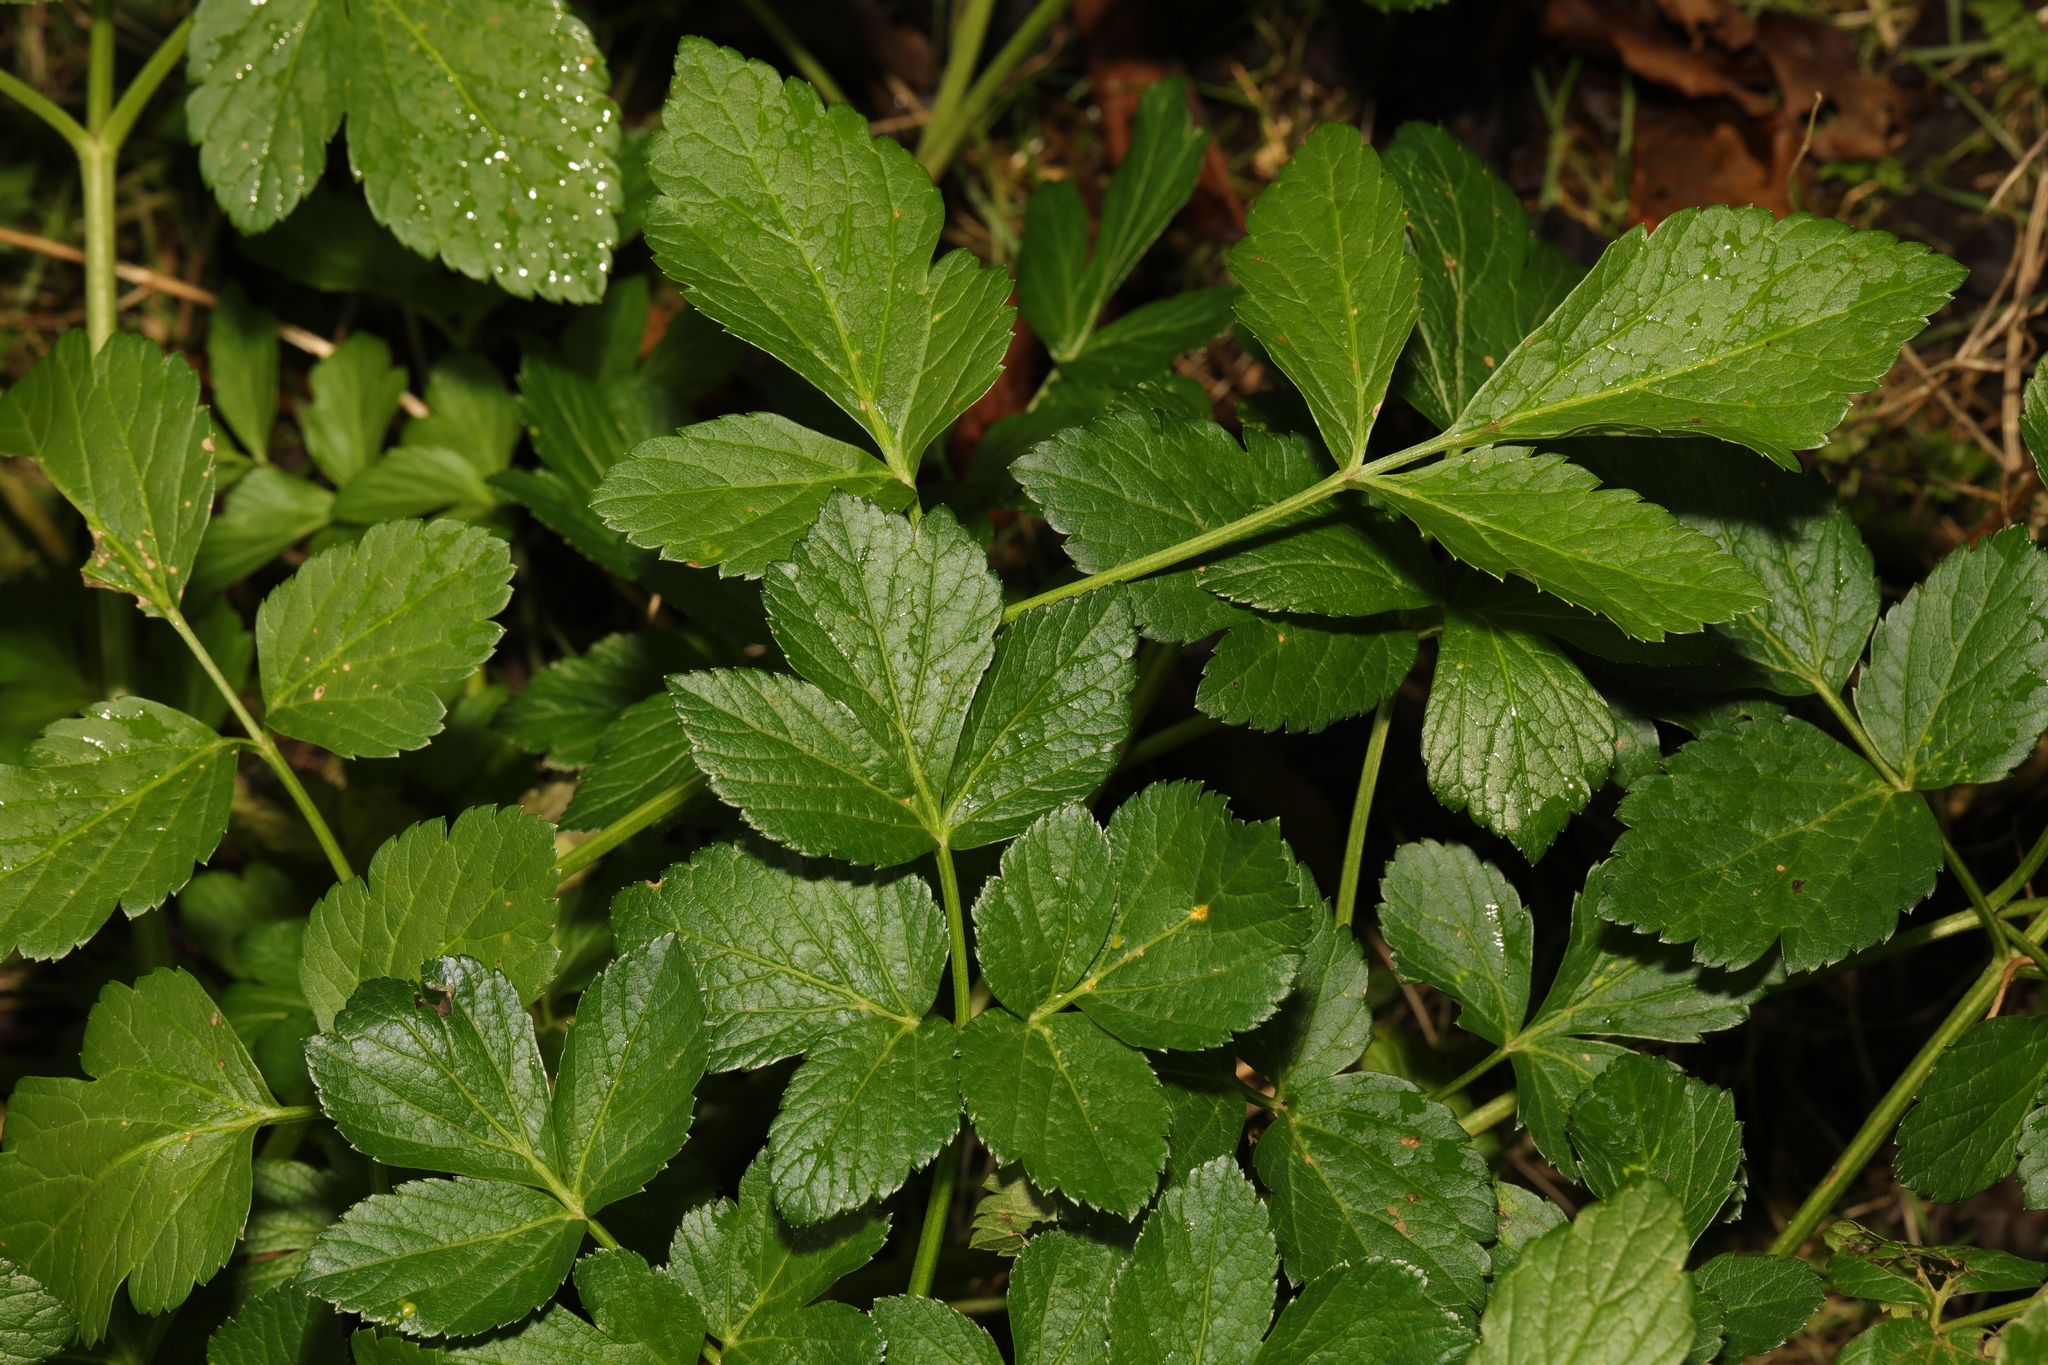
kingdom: Plantae
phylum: Tracheophyta
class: Magnoliopsida
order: Apiales
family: Apiaceae
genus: Smyrnium
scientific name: Smyrnium olusatrum
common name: Alexanders
